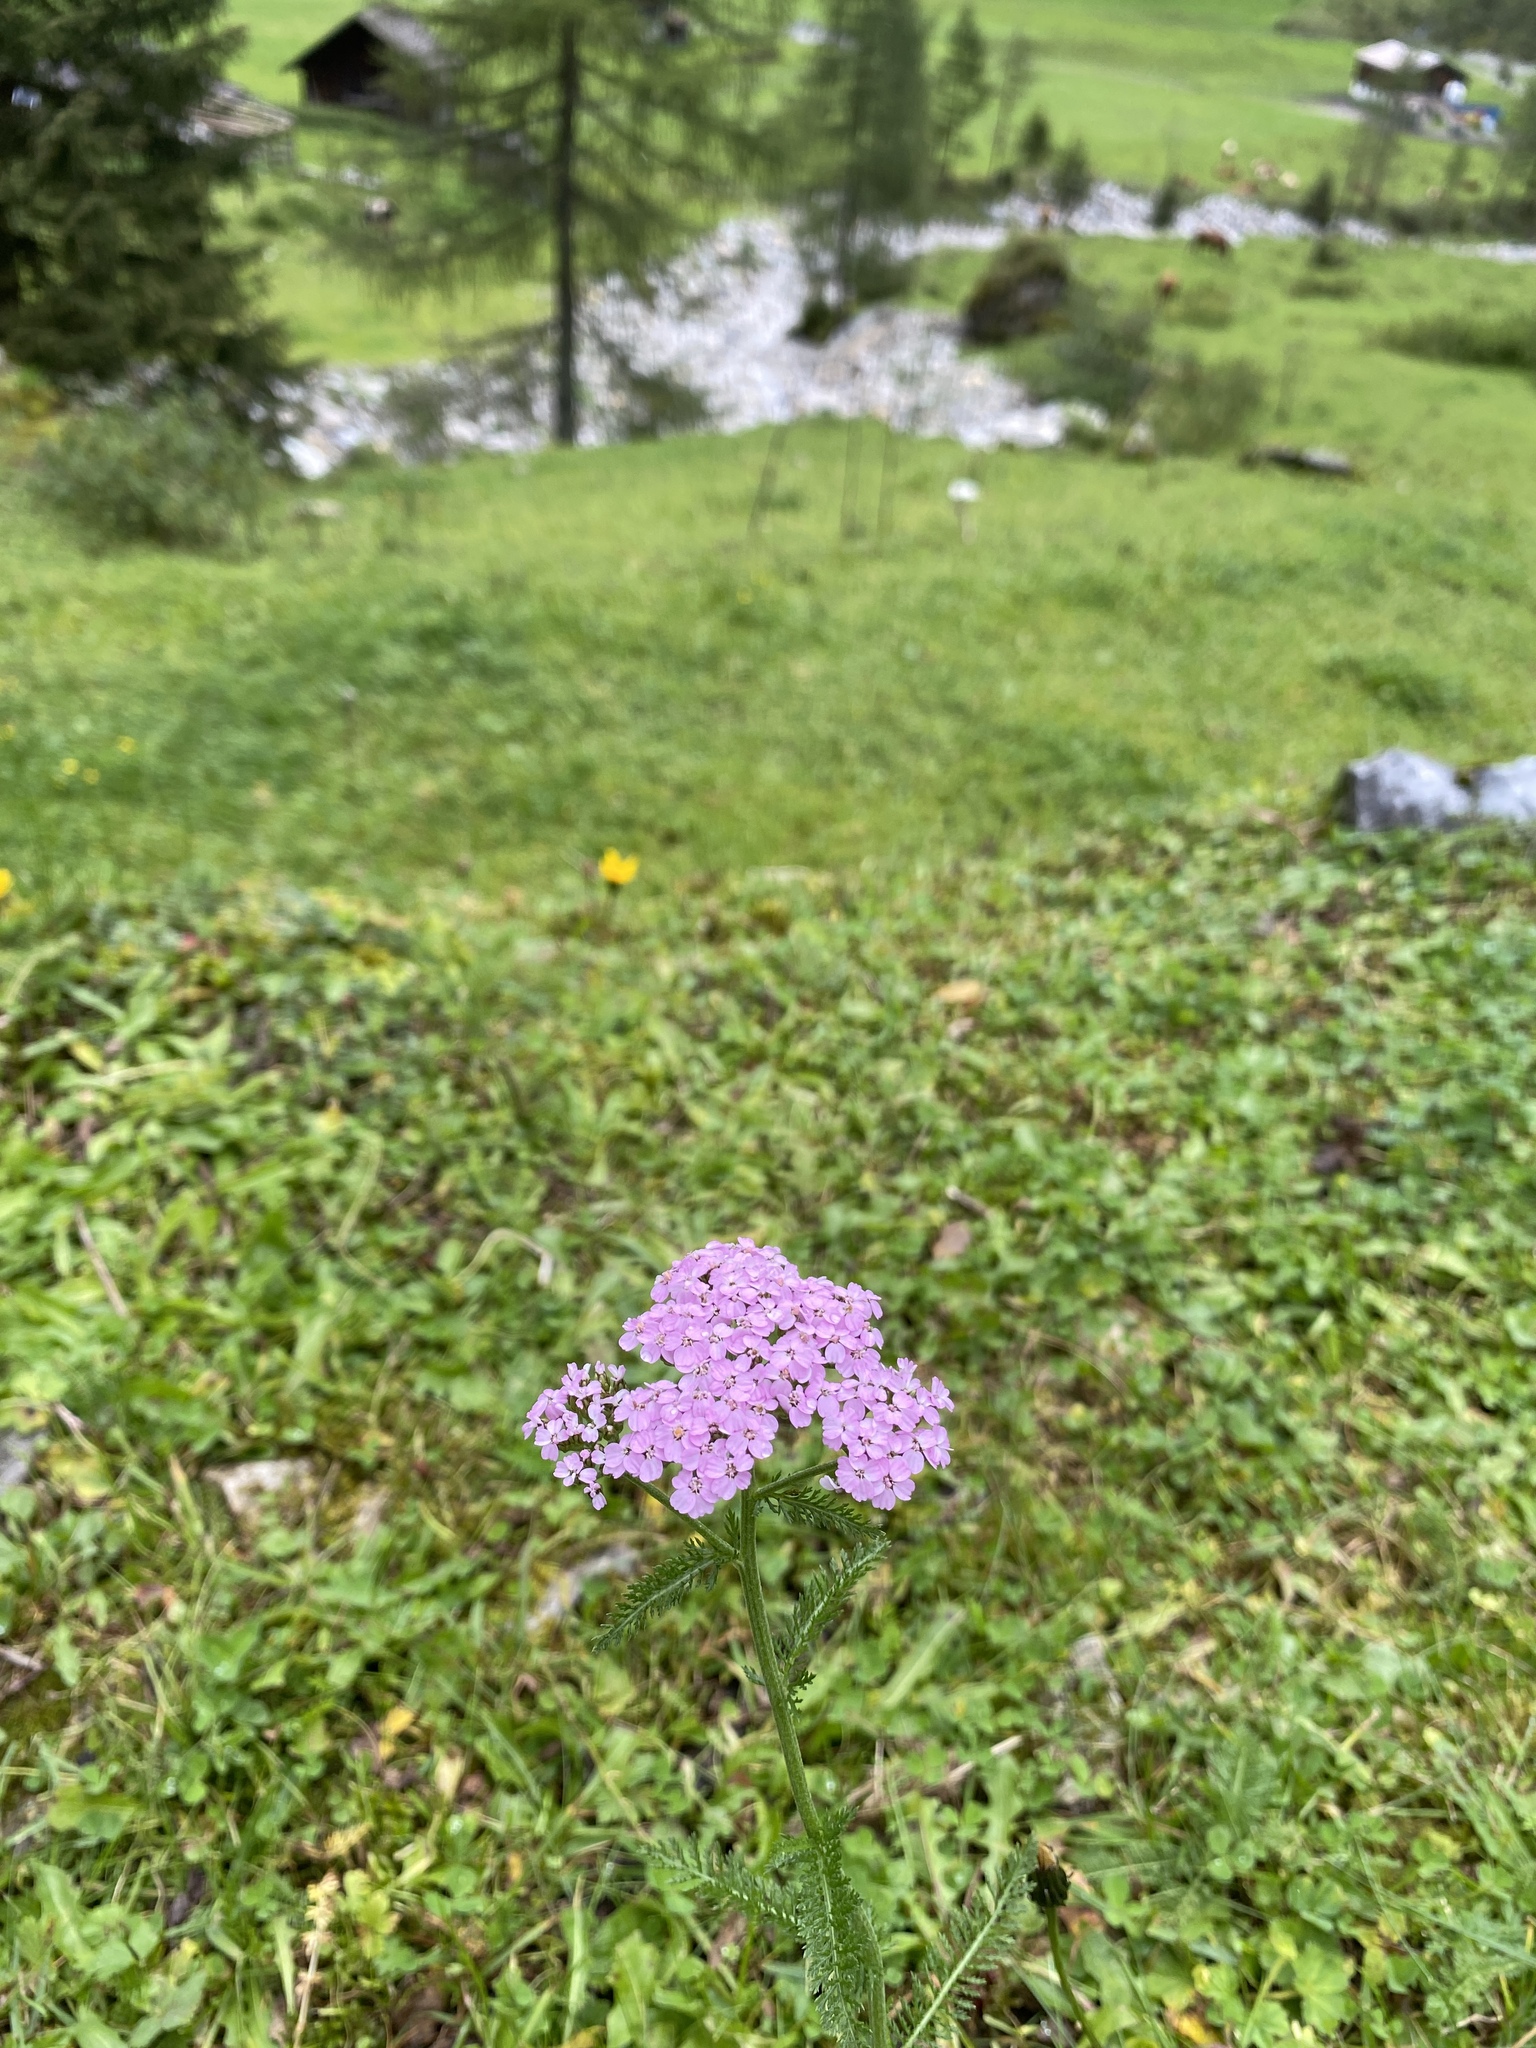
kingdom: Plantae
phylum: Tracheophyta
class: Magnoliopsida
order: Asterales
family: Asteraceae
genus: Achillea
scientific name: Achillea
